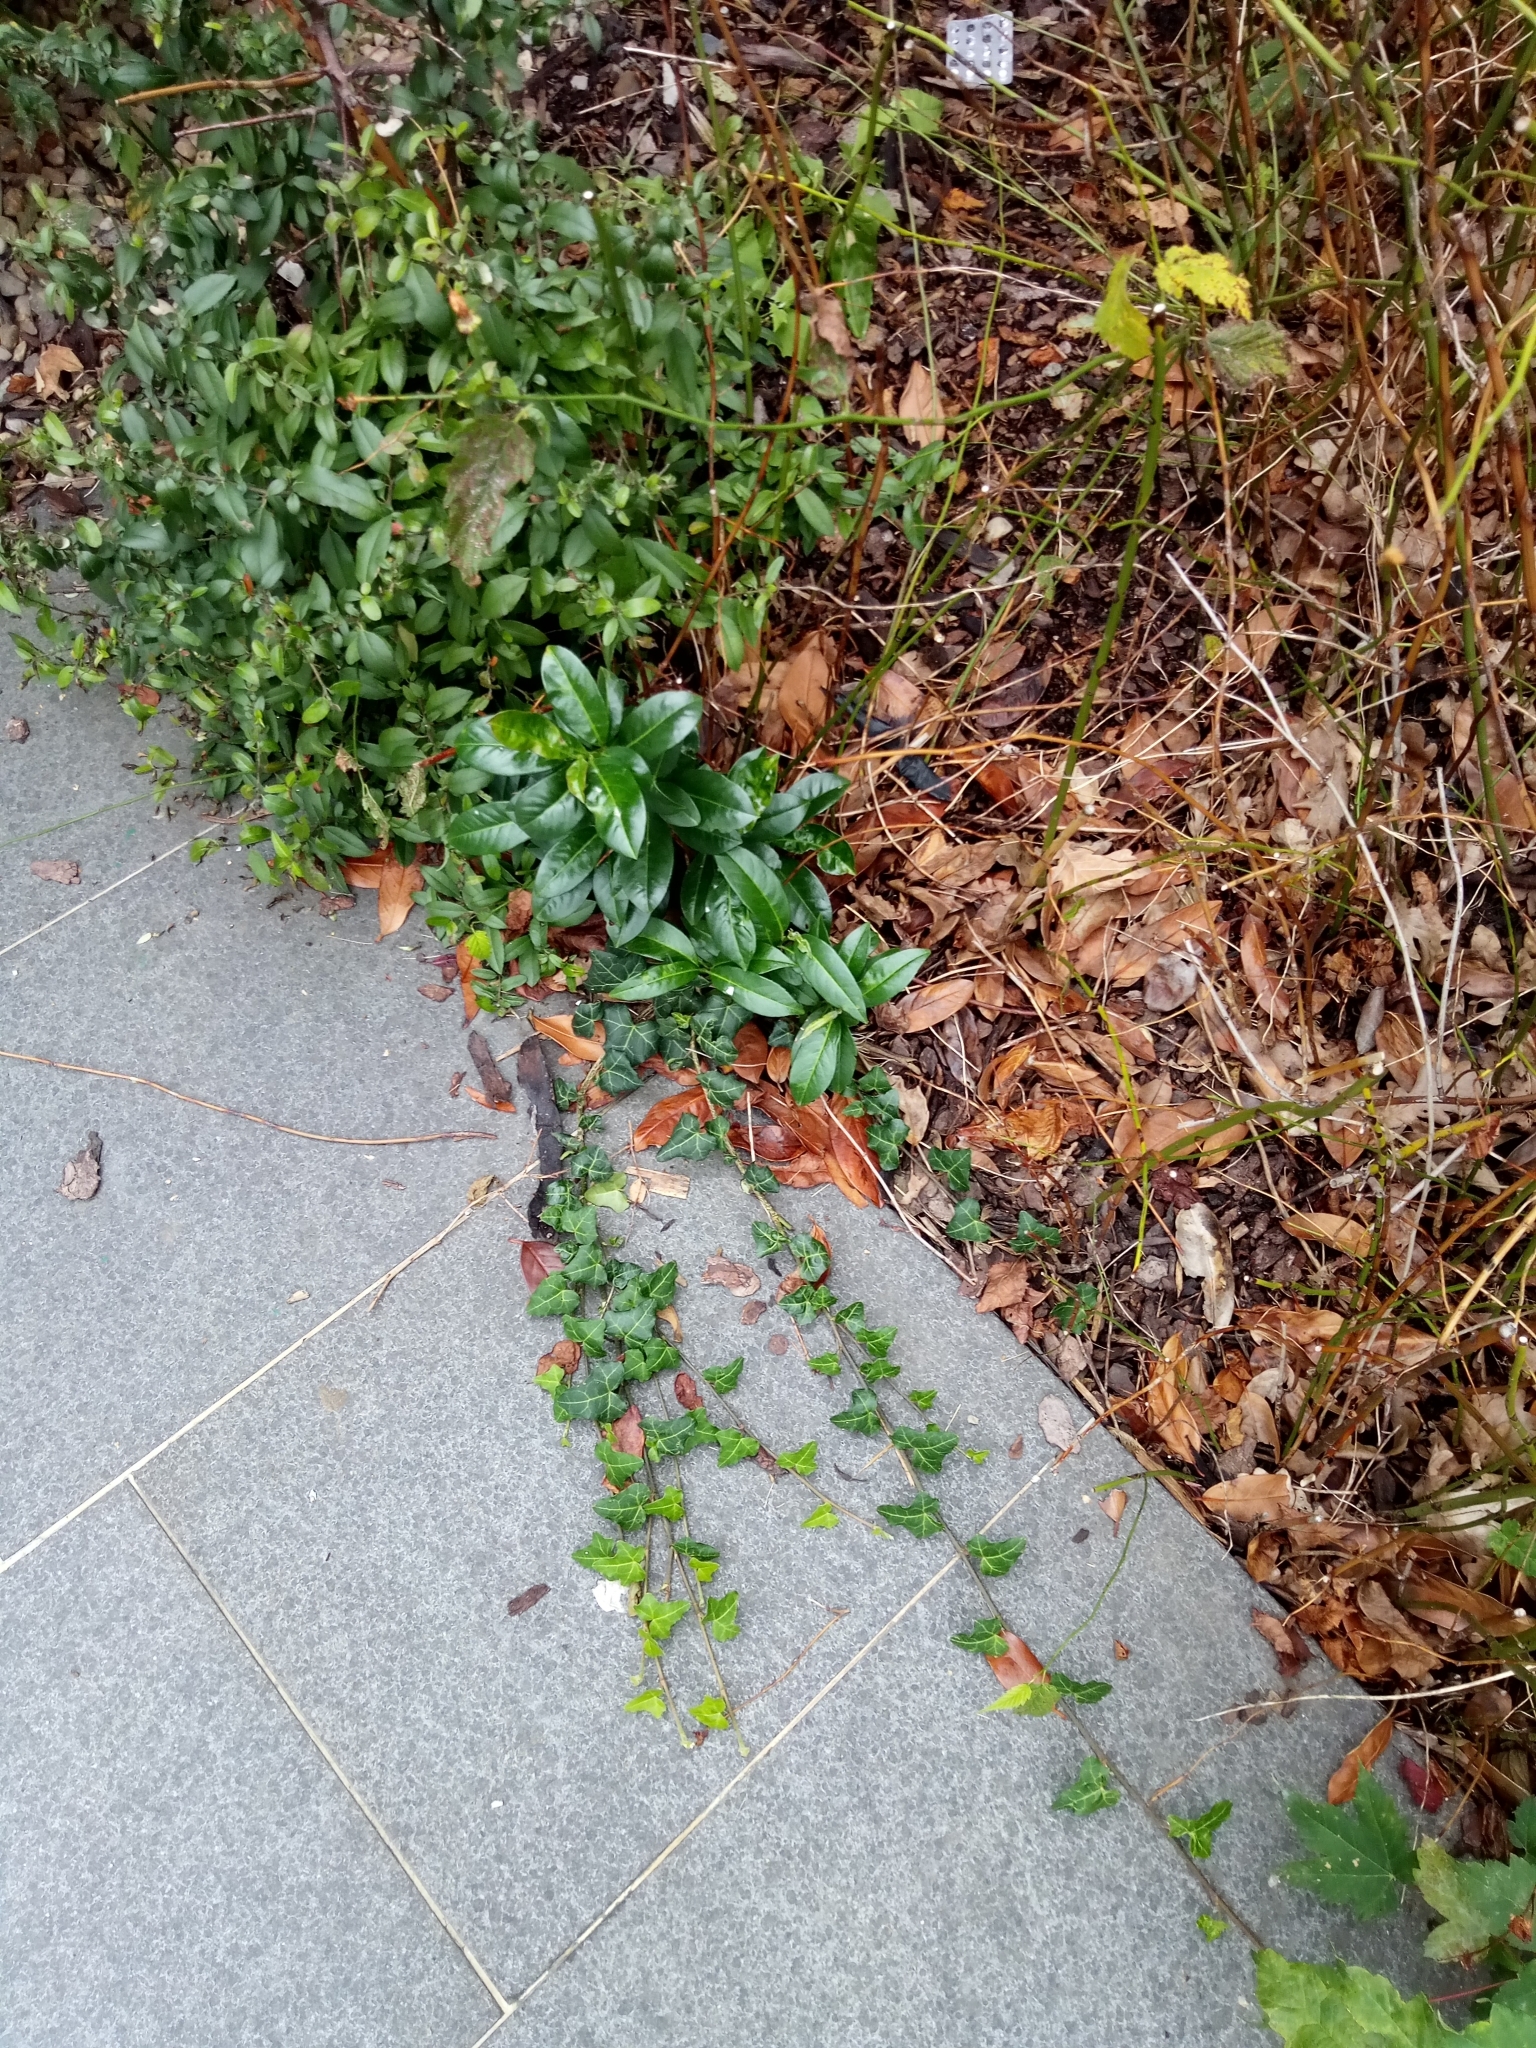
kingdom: Plantae
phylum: Tracheophyta
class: Magnoliopsida
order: Apiales
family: Araliaceae
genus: Hedera
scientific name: Hedera helix
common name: Ivy
